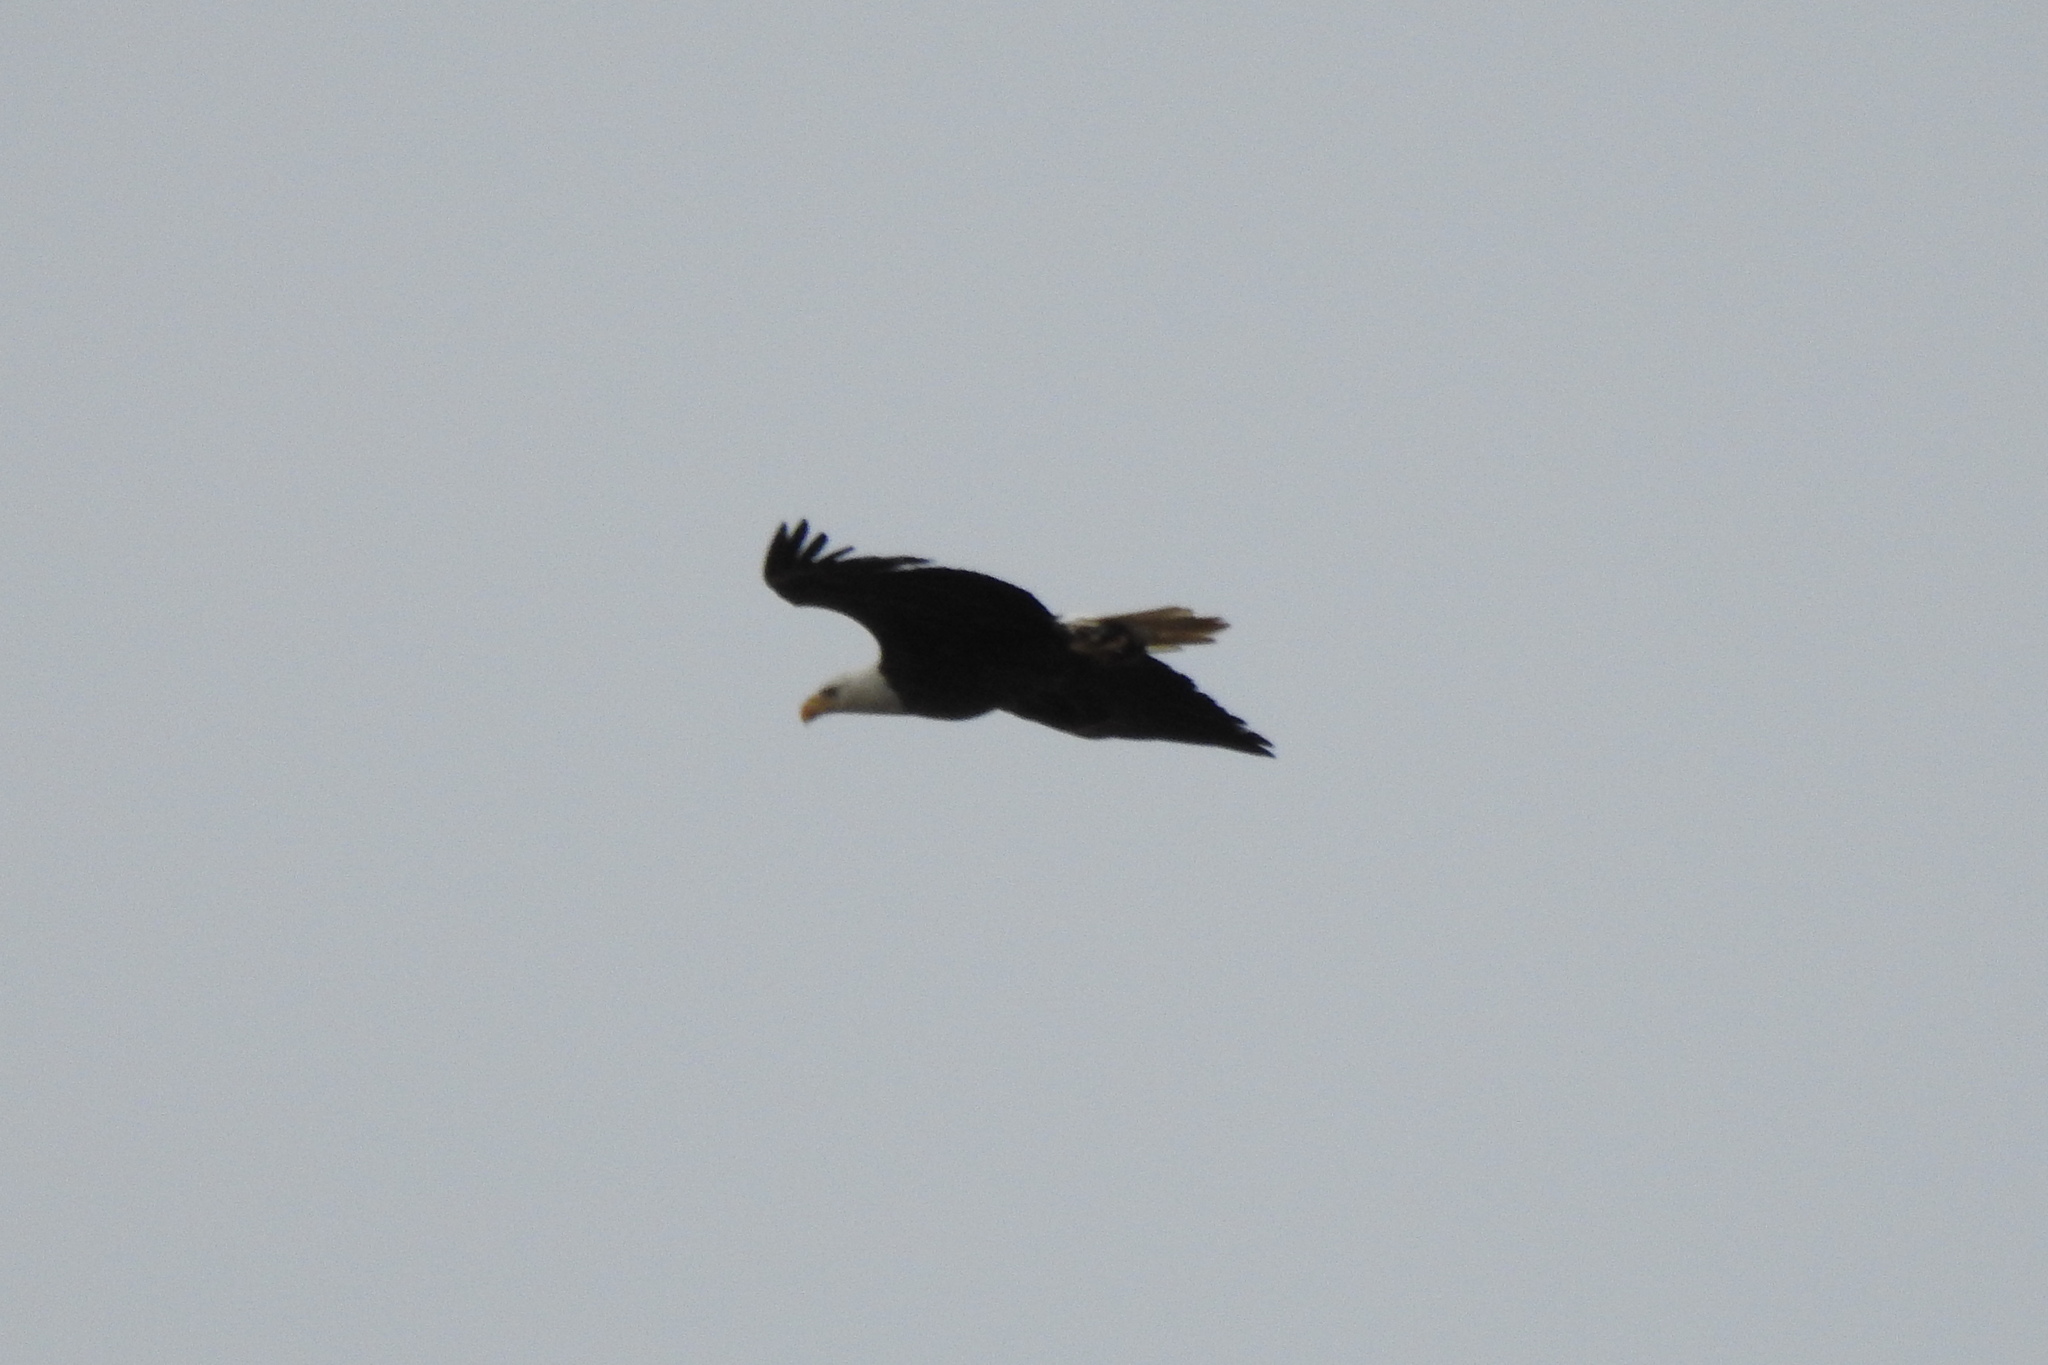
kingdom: Animalia
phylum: Chordata
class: Aves
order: Accipitriformes
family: Accipitridae
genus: Haliaeetus
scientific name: Haliaeetus leucocephalus
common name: Bald eagle
